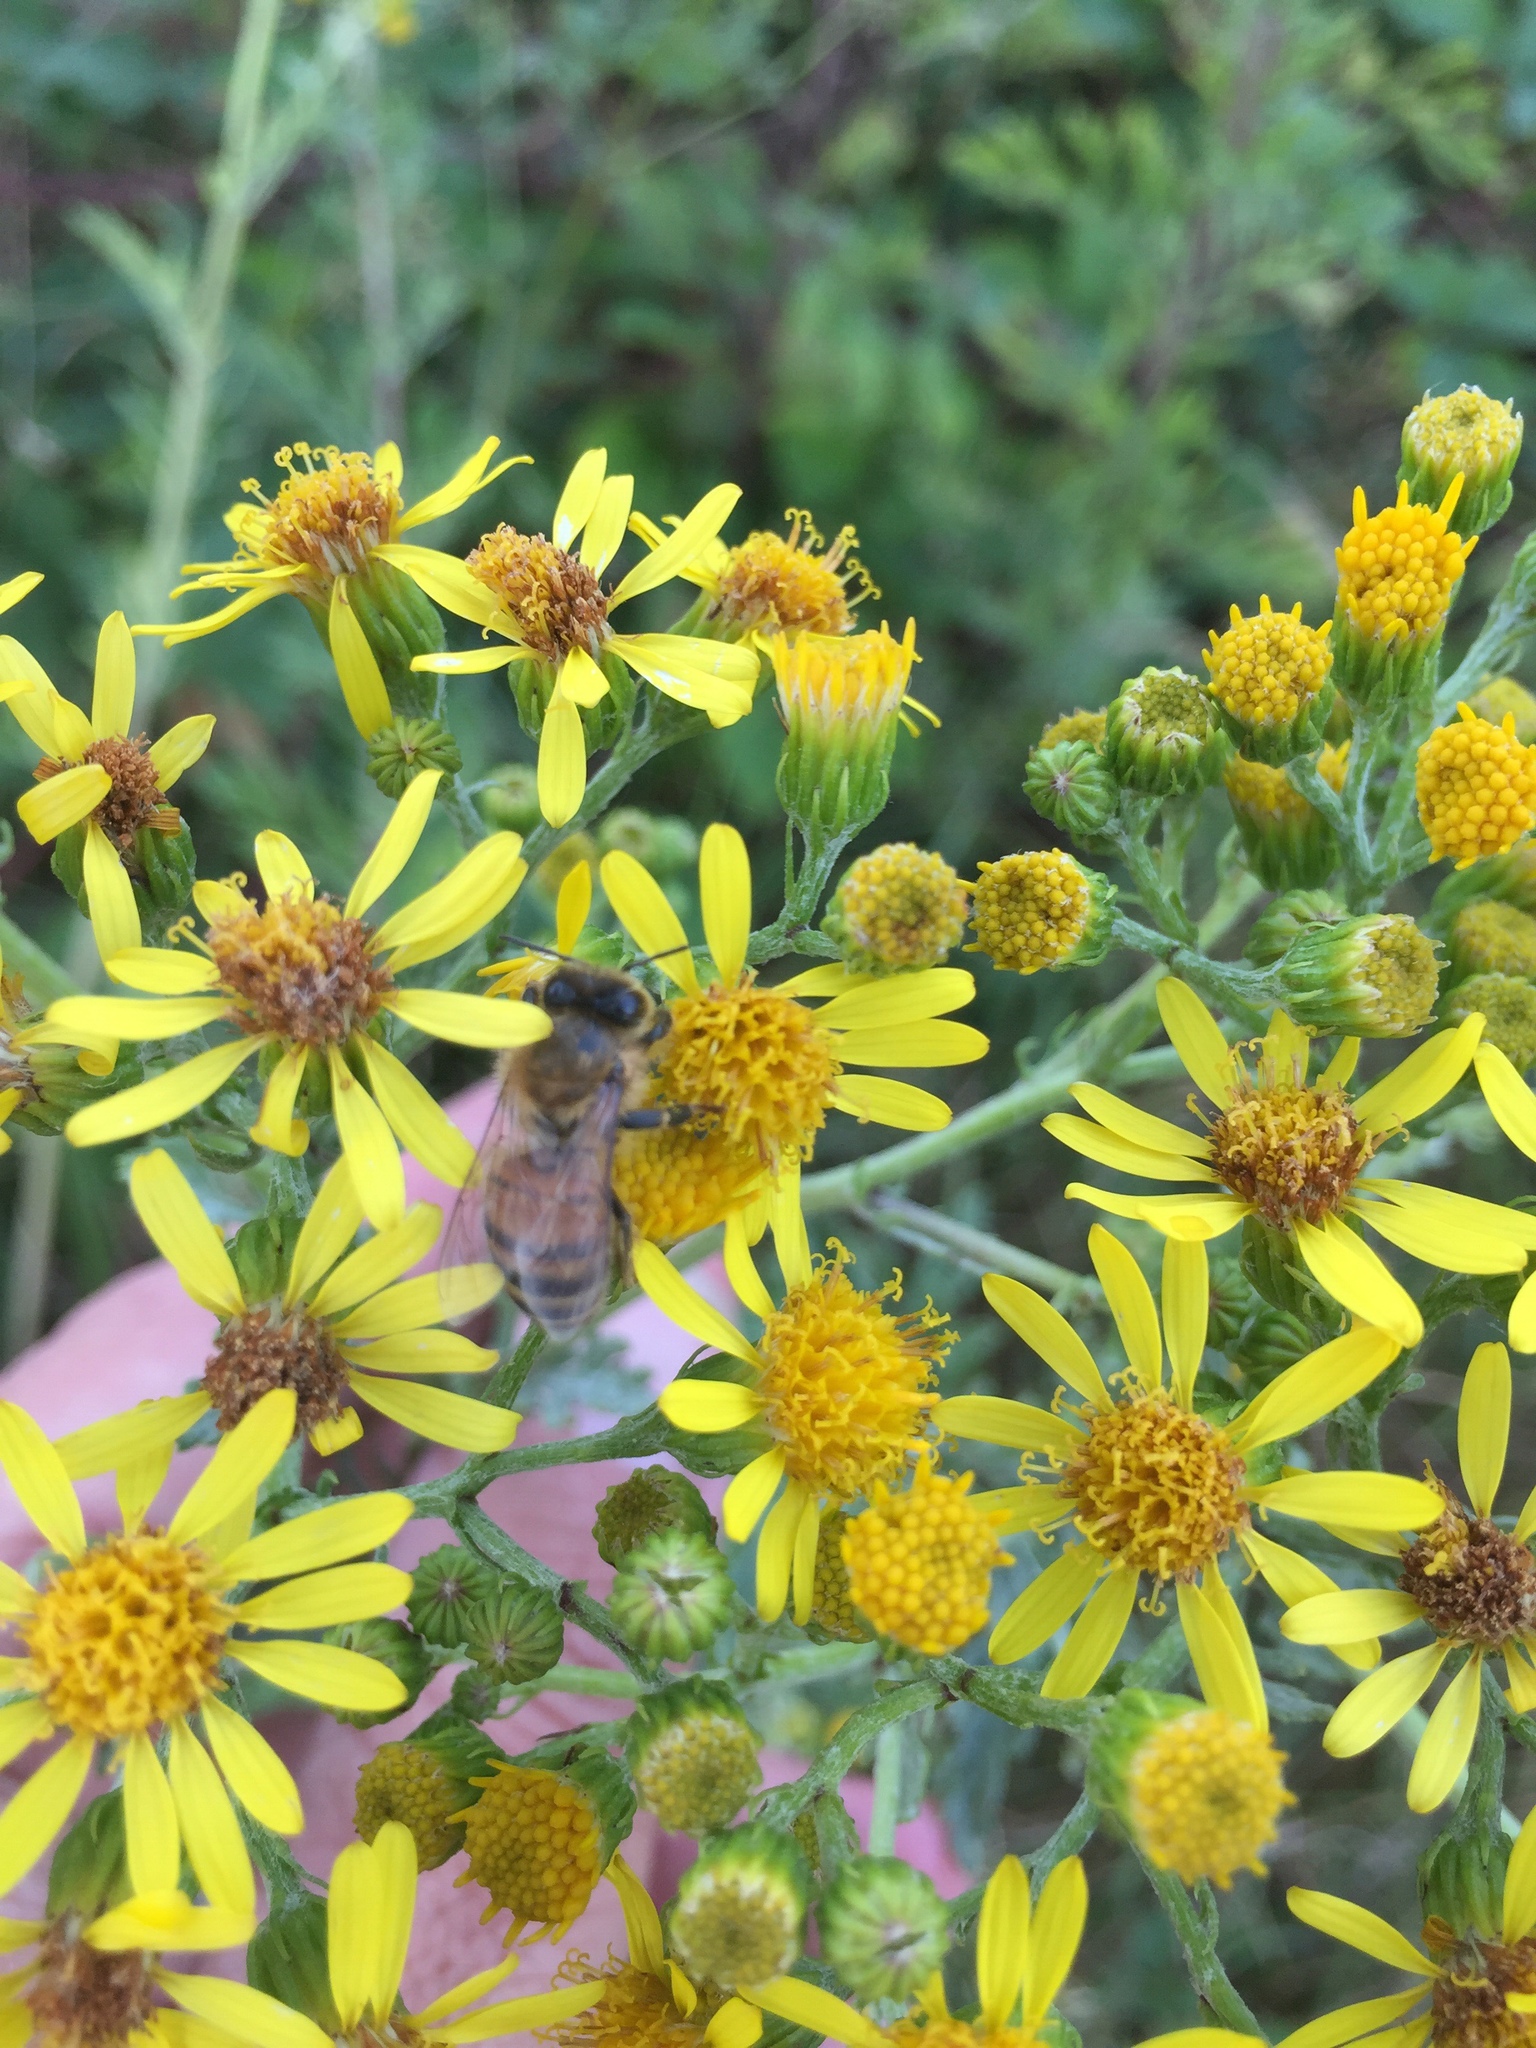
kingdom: Animalia
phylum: Arthropoda
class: Insecta
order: Hymenoptera
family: Apidae
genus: Apis
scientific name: Apis mellifera
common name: Honey bee
